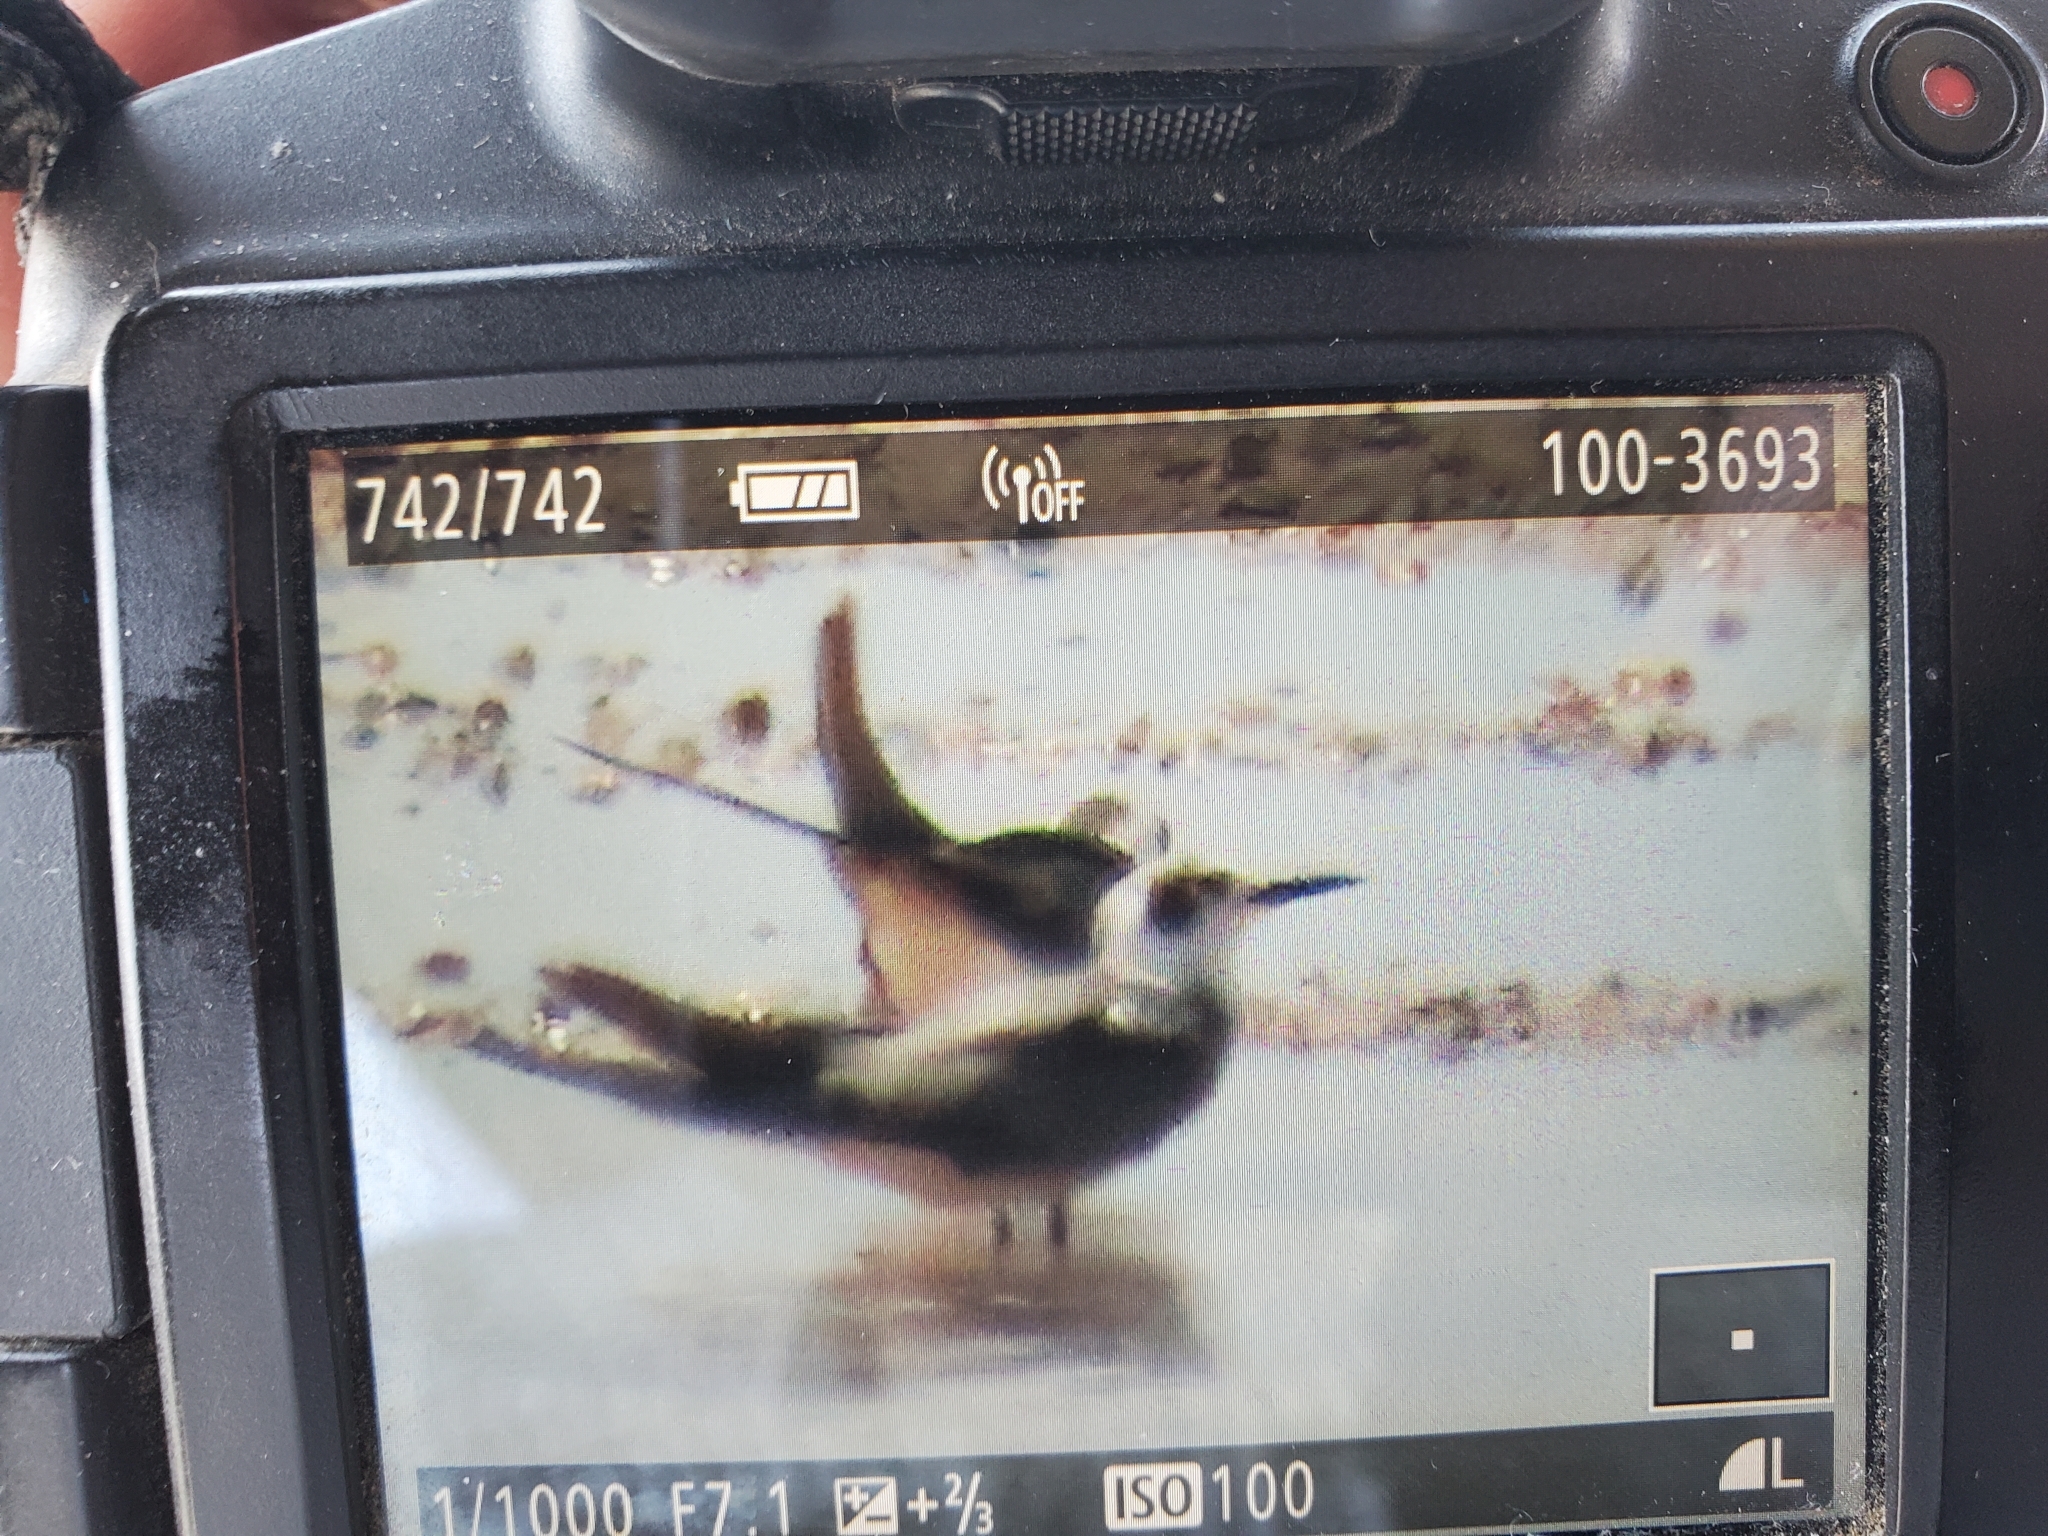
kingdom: Animalia
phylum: Chordata
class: Aves
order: Charadriiformes
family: Laridae
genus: Chlidonias
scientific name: Chlidonias niger
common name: Black tern
